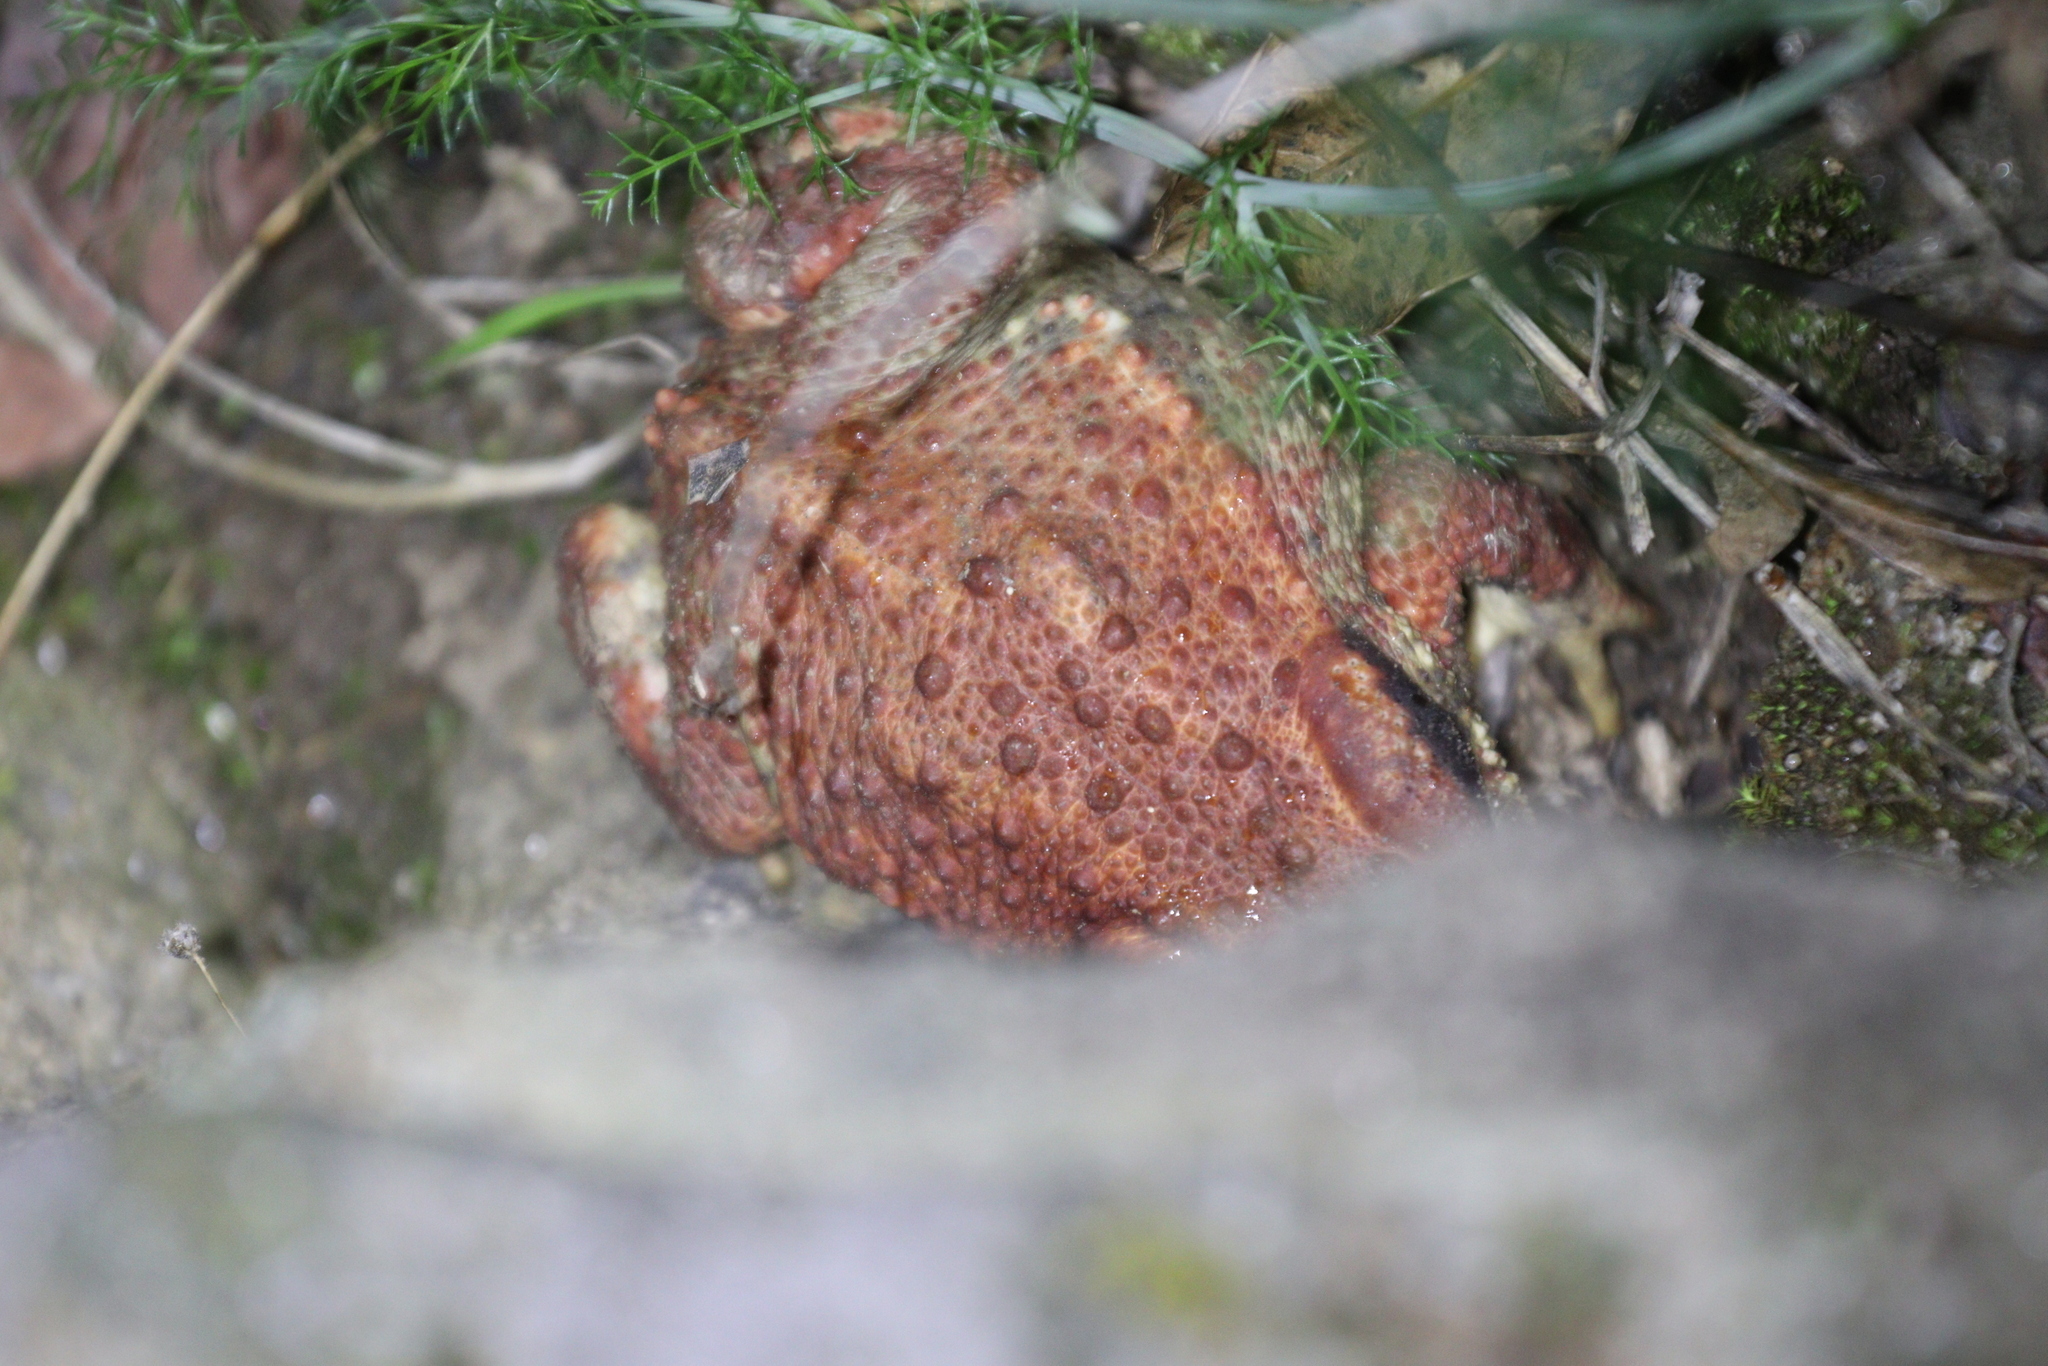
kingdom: Animalia
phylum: Chordata
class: Amphibia
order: Anura
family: Bufonidae
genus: Bufo
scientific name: Bufo spinosus
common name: Western common toad
